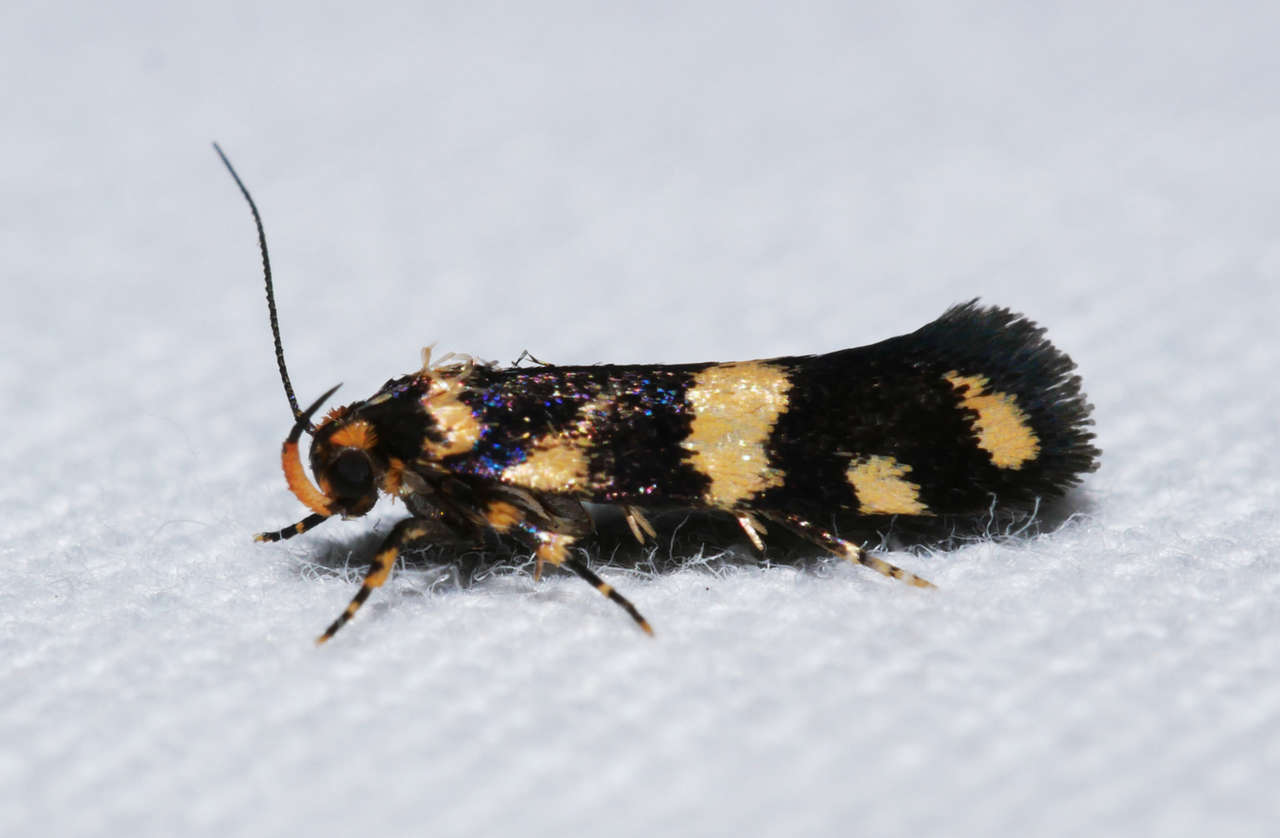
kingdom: Animalia
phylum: Arthropoda
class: Insecta
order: Lepidoptera
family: Oecophoridae
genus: Catadoceta
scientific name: Catadoceta xanthostephana
